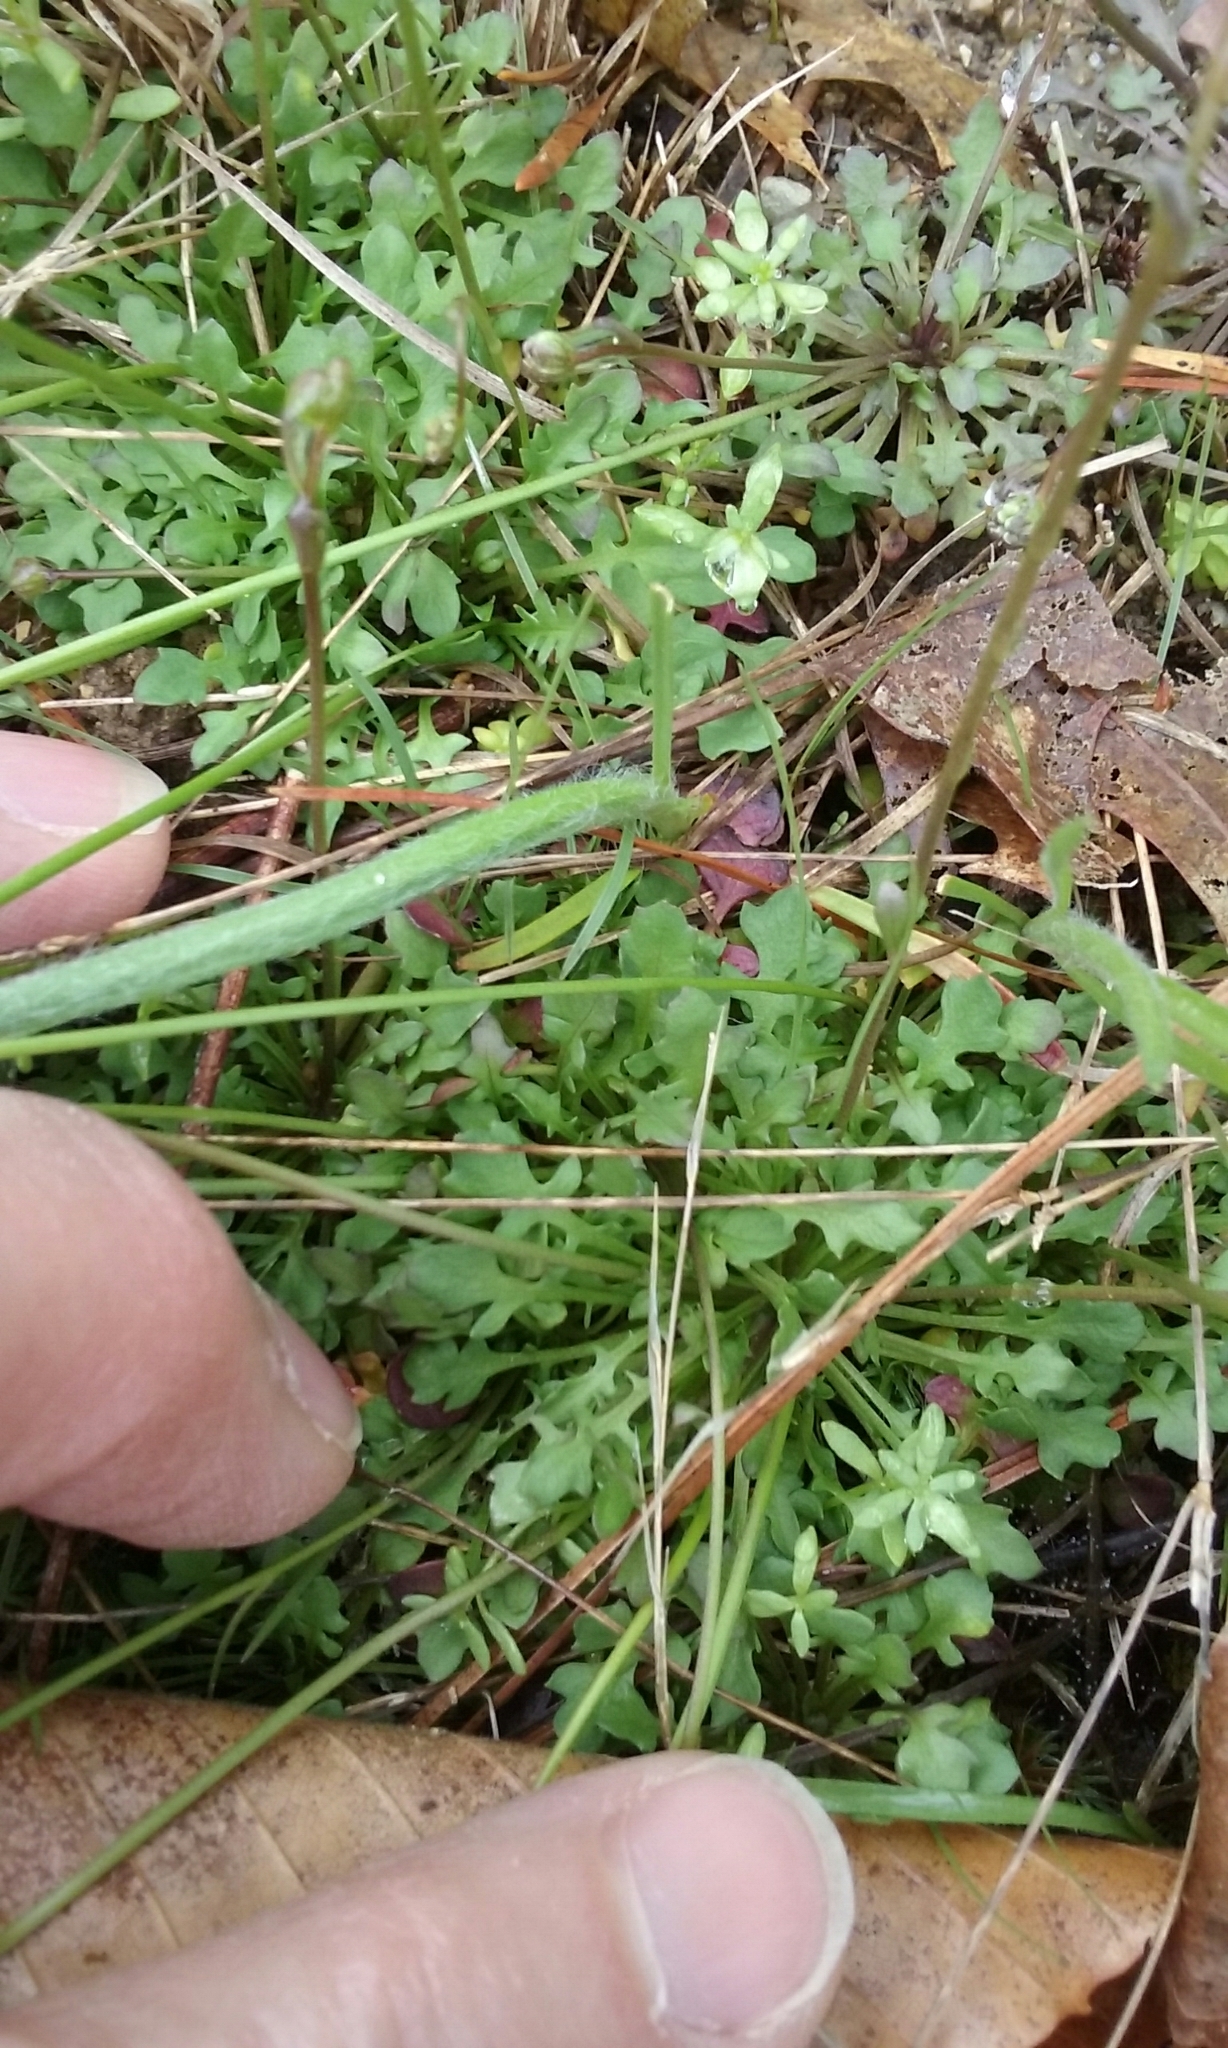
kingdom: Plantae
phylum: Tracheophyta
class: Magnoliopsida
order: Brassicales
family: Brassicaceae
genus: Teesdalia
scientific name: Teesdalia nudicaulis
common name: Shepherd's cress
